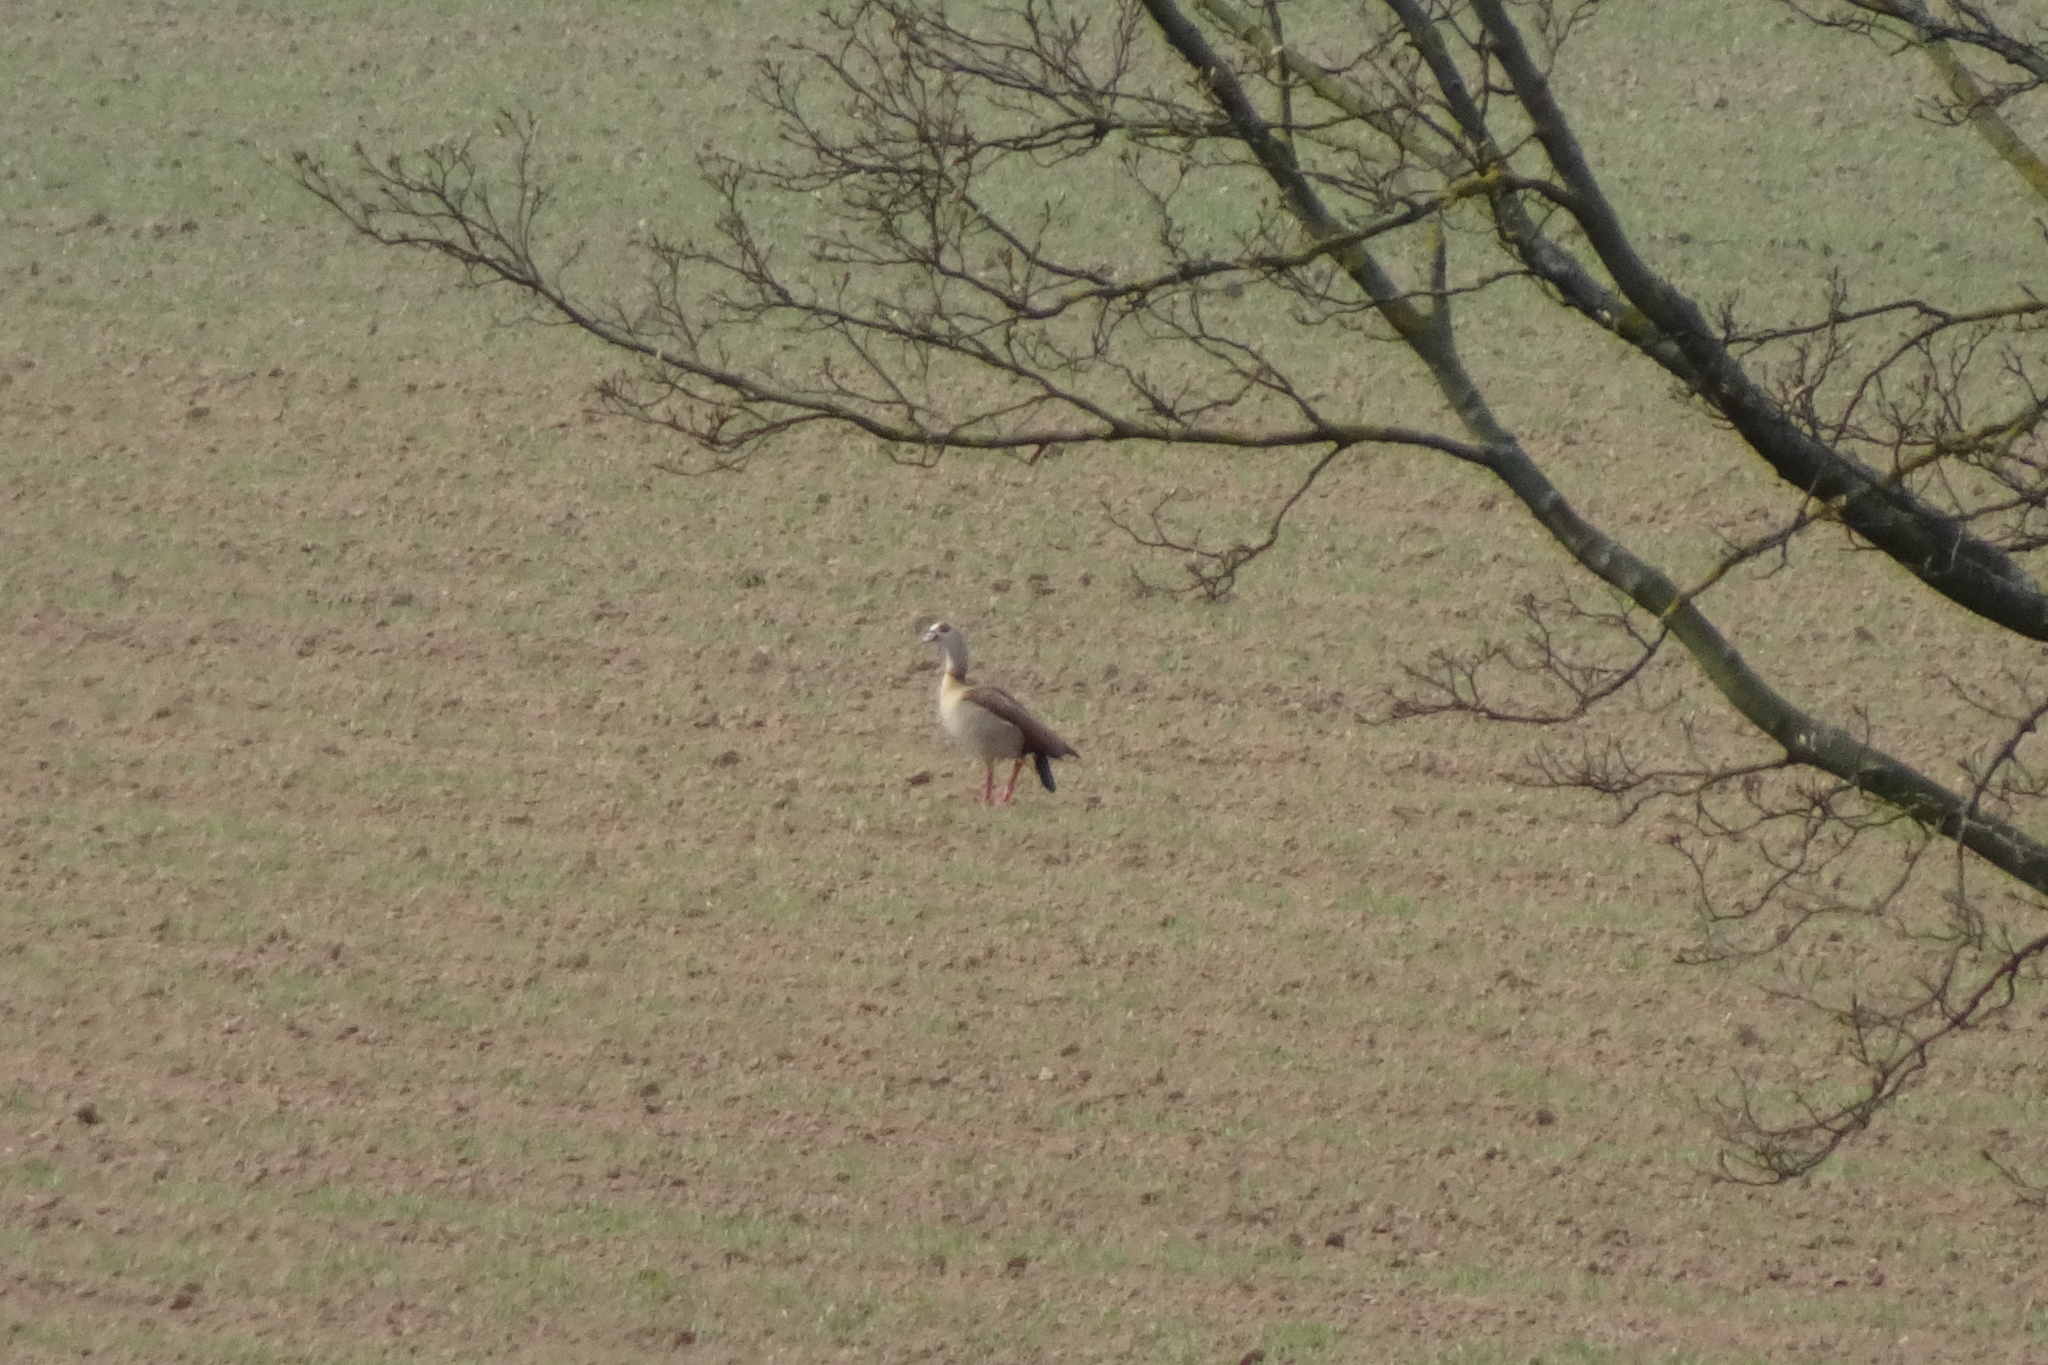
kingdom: Animalia
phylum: Chordata
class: Aves
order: Anseriformes
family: Anatidae
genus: Alopochen
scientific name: Alopochen aegyptiaca
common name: Egyptian goose
